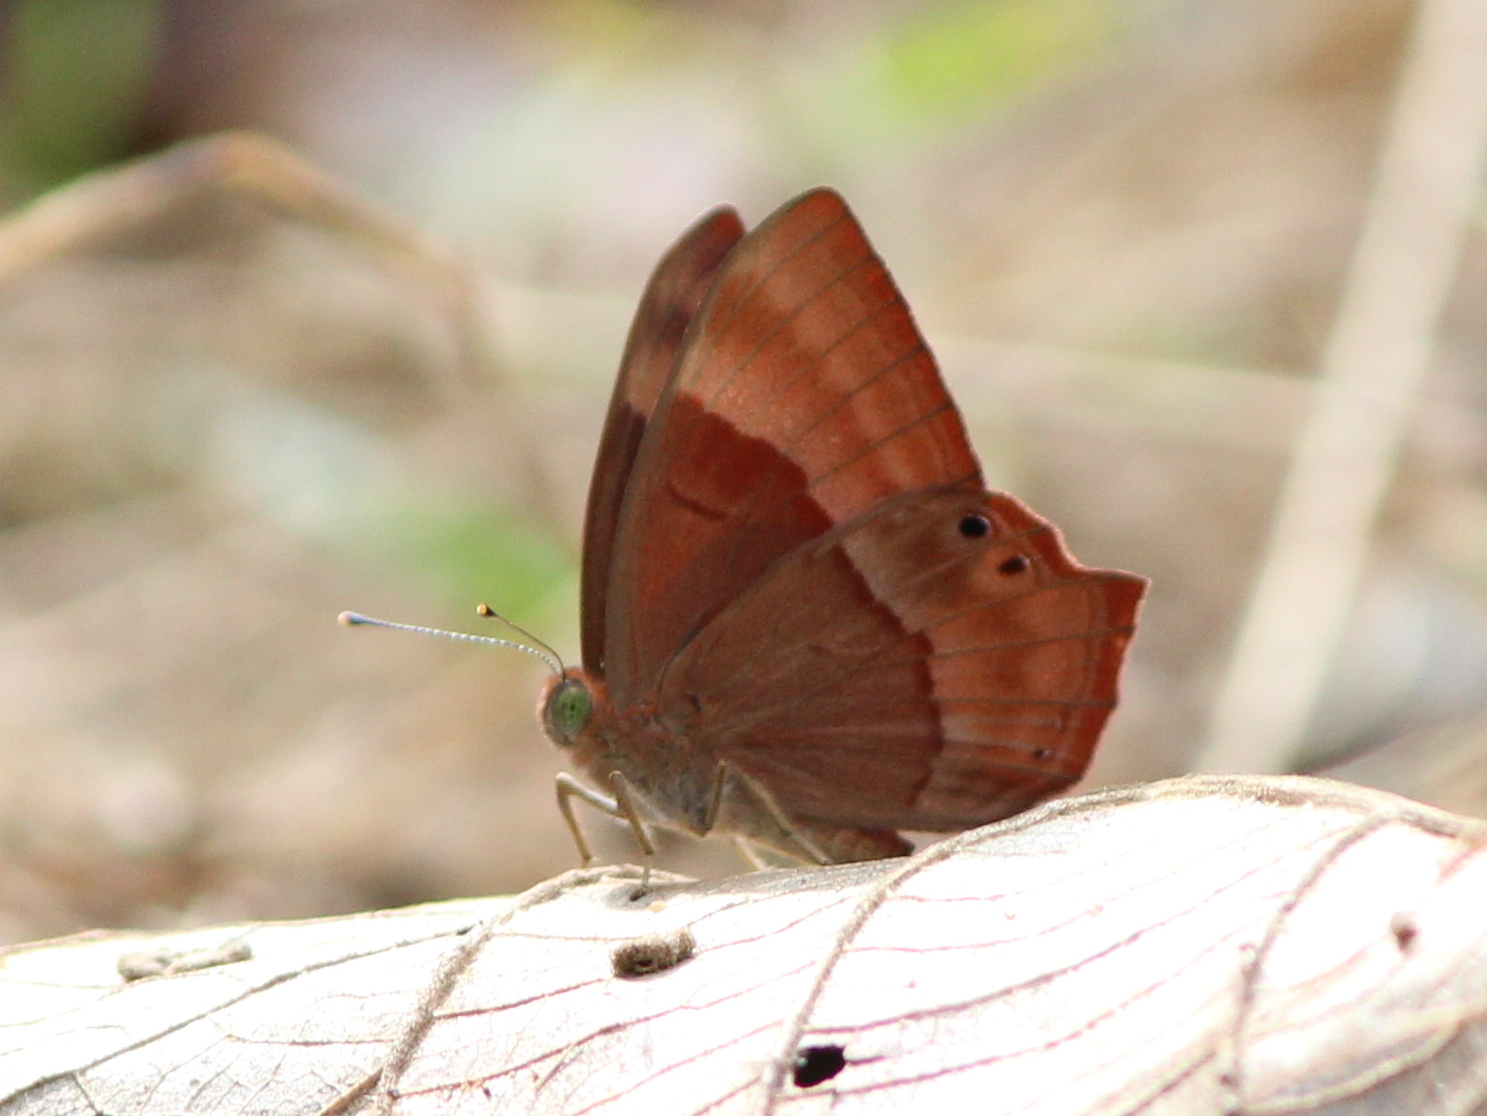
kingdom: Animalia
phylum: Arthropoda
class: Insecta
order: Lepidoptera
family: Lycaenidae
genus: Abisara
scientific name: Abisara bifasciata
